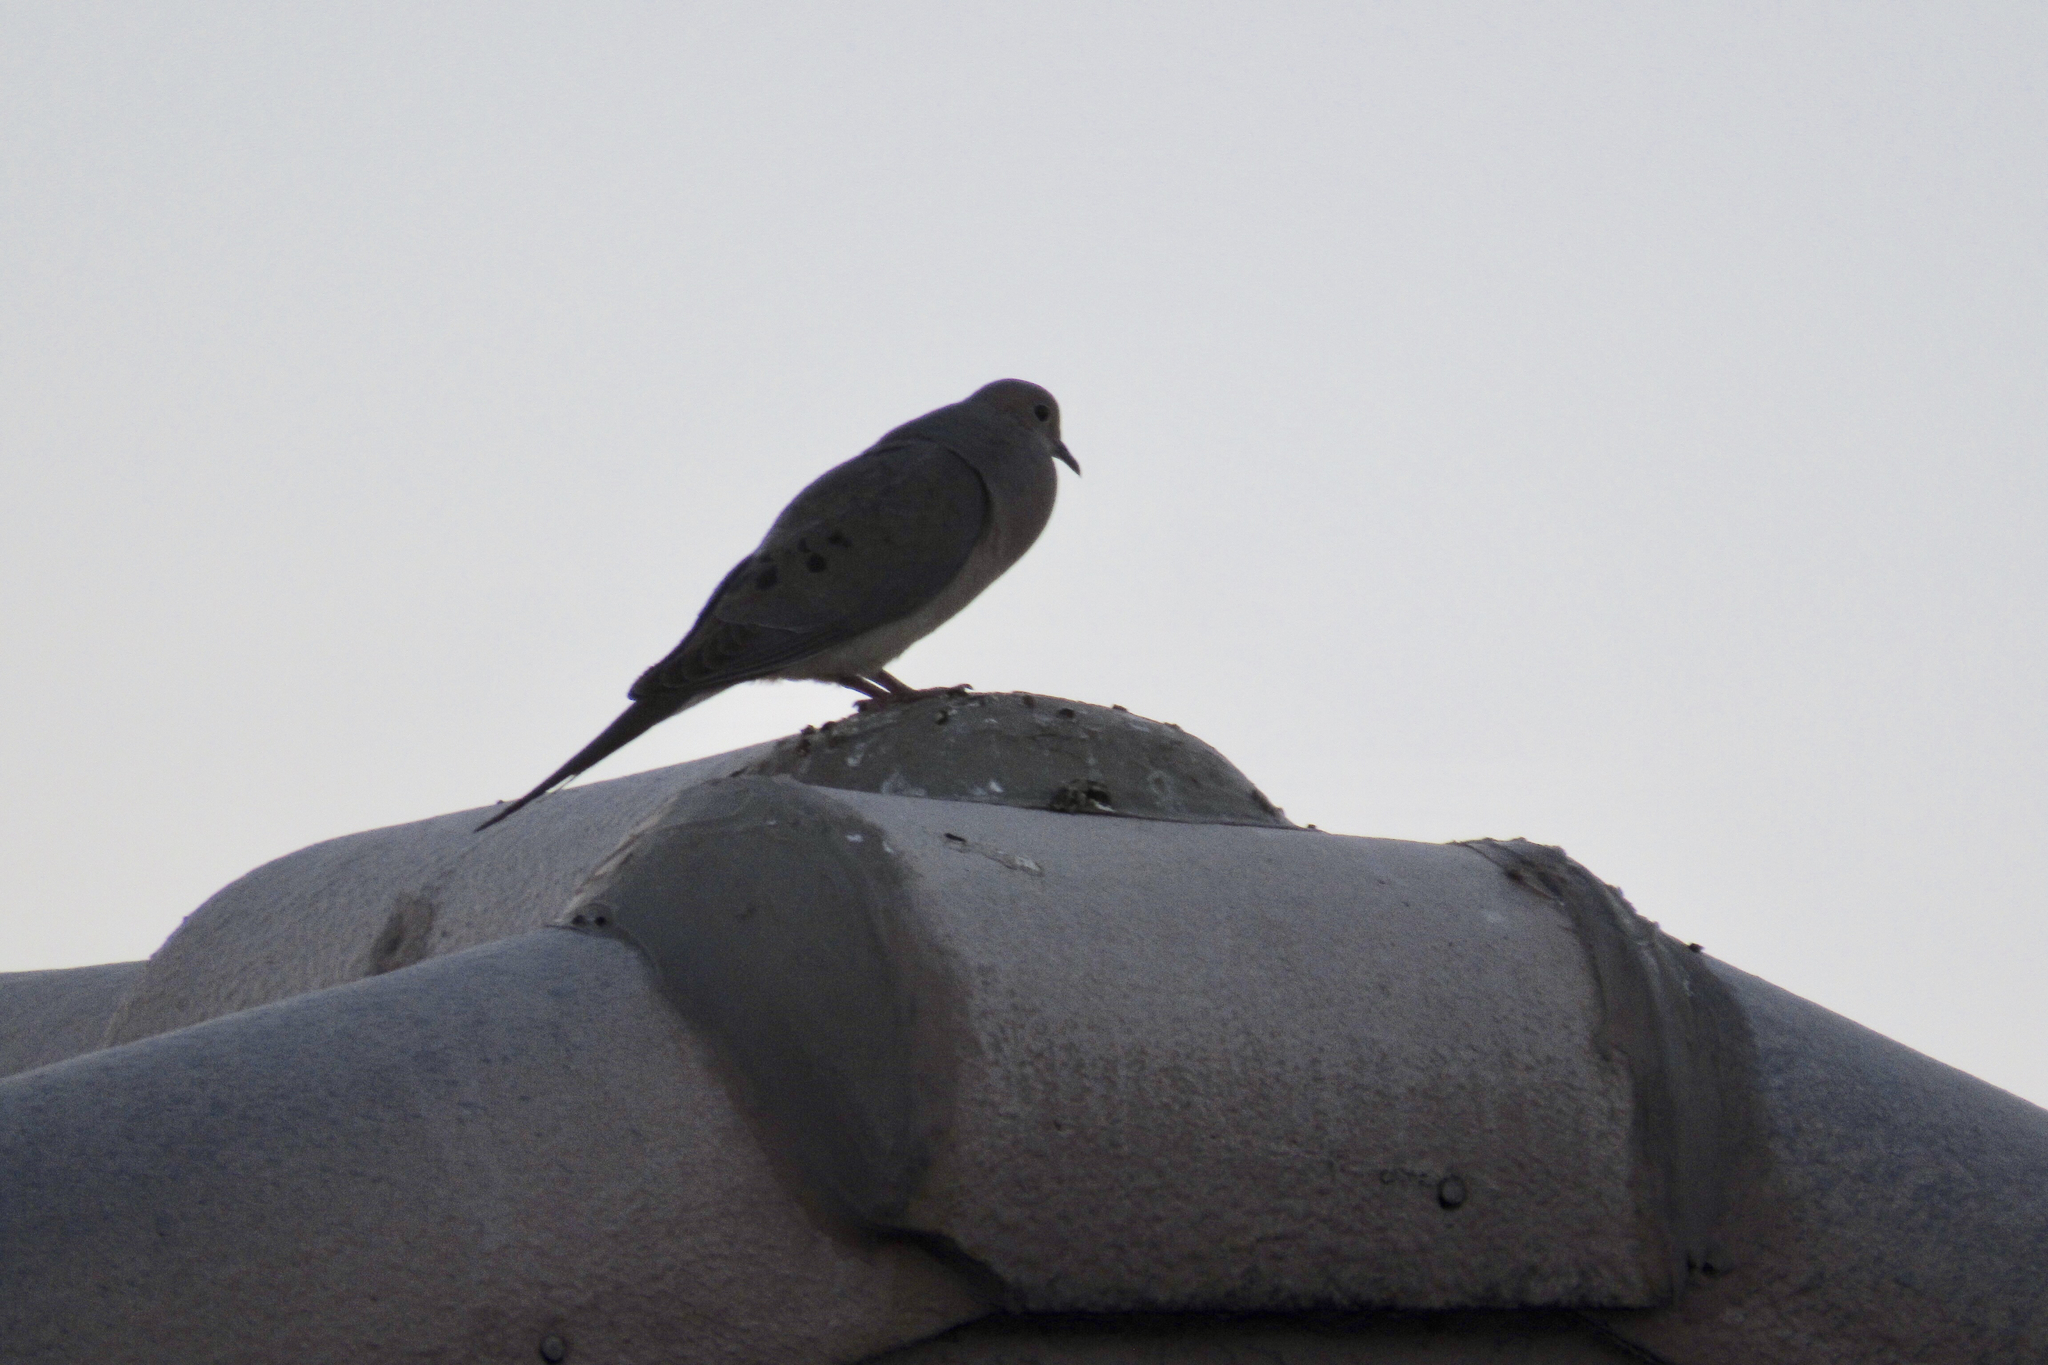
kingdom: Animalia
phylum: Chordata
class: Aves
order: Columbiformes
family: Columbidae
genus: Zenaida
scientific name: Zenaida macroura
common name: Mourning dove
